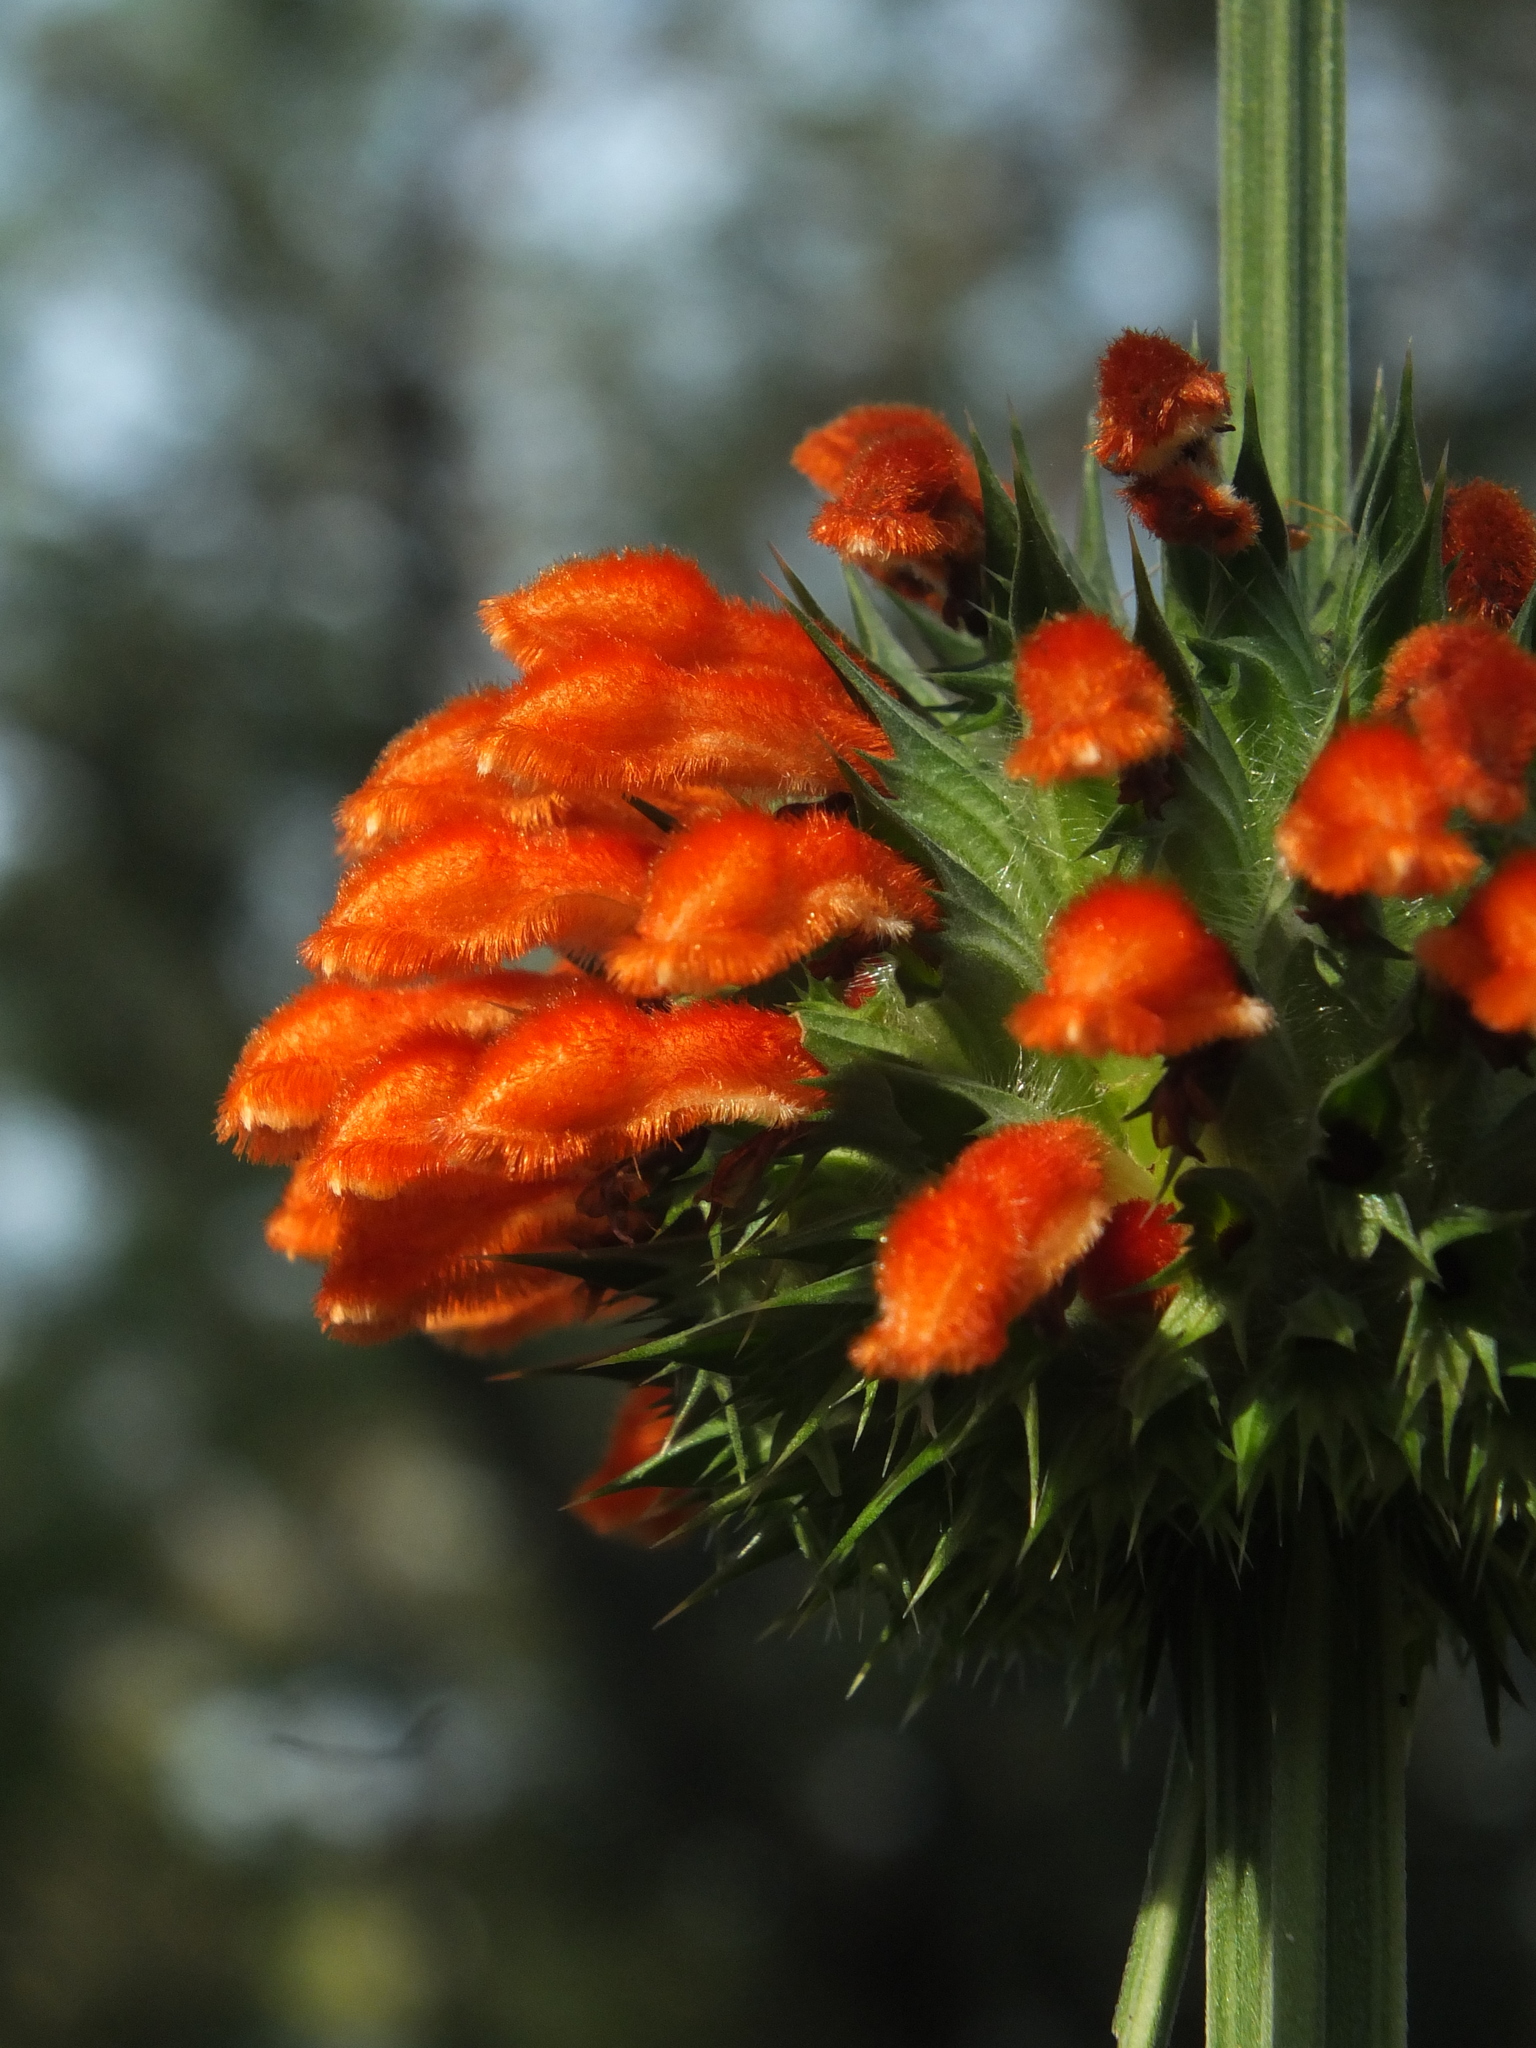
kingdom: Plantae
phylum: Tracheophyta
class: Magnoliopsida
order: Lamiales
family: Lamiaceae
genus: Leonotis
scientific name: Leonotis nepetifolia
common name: Christmas candlestick
